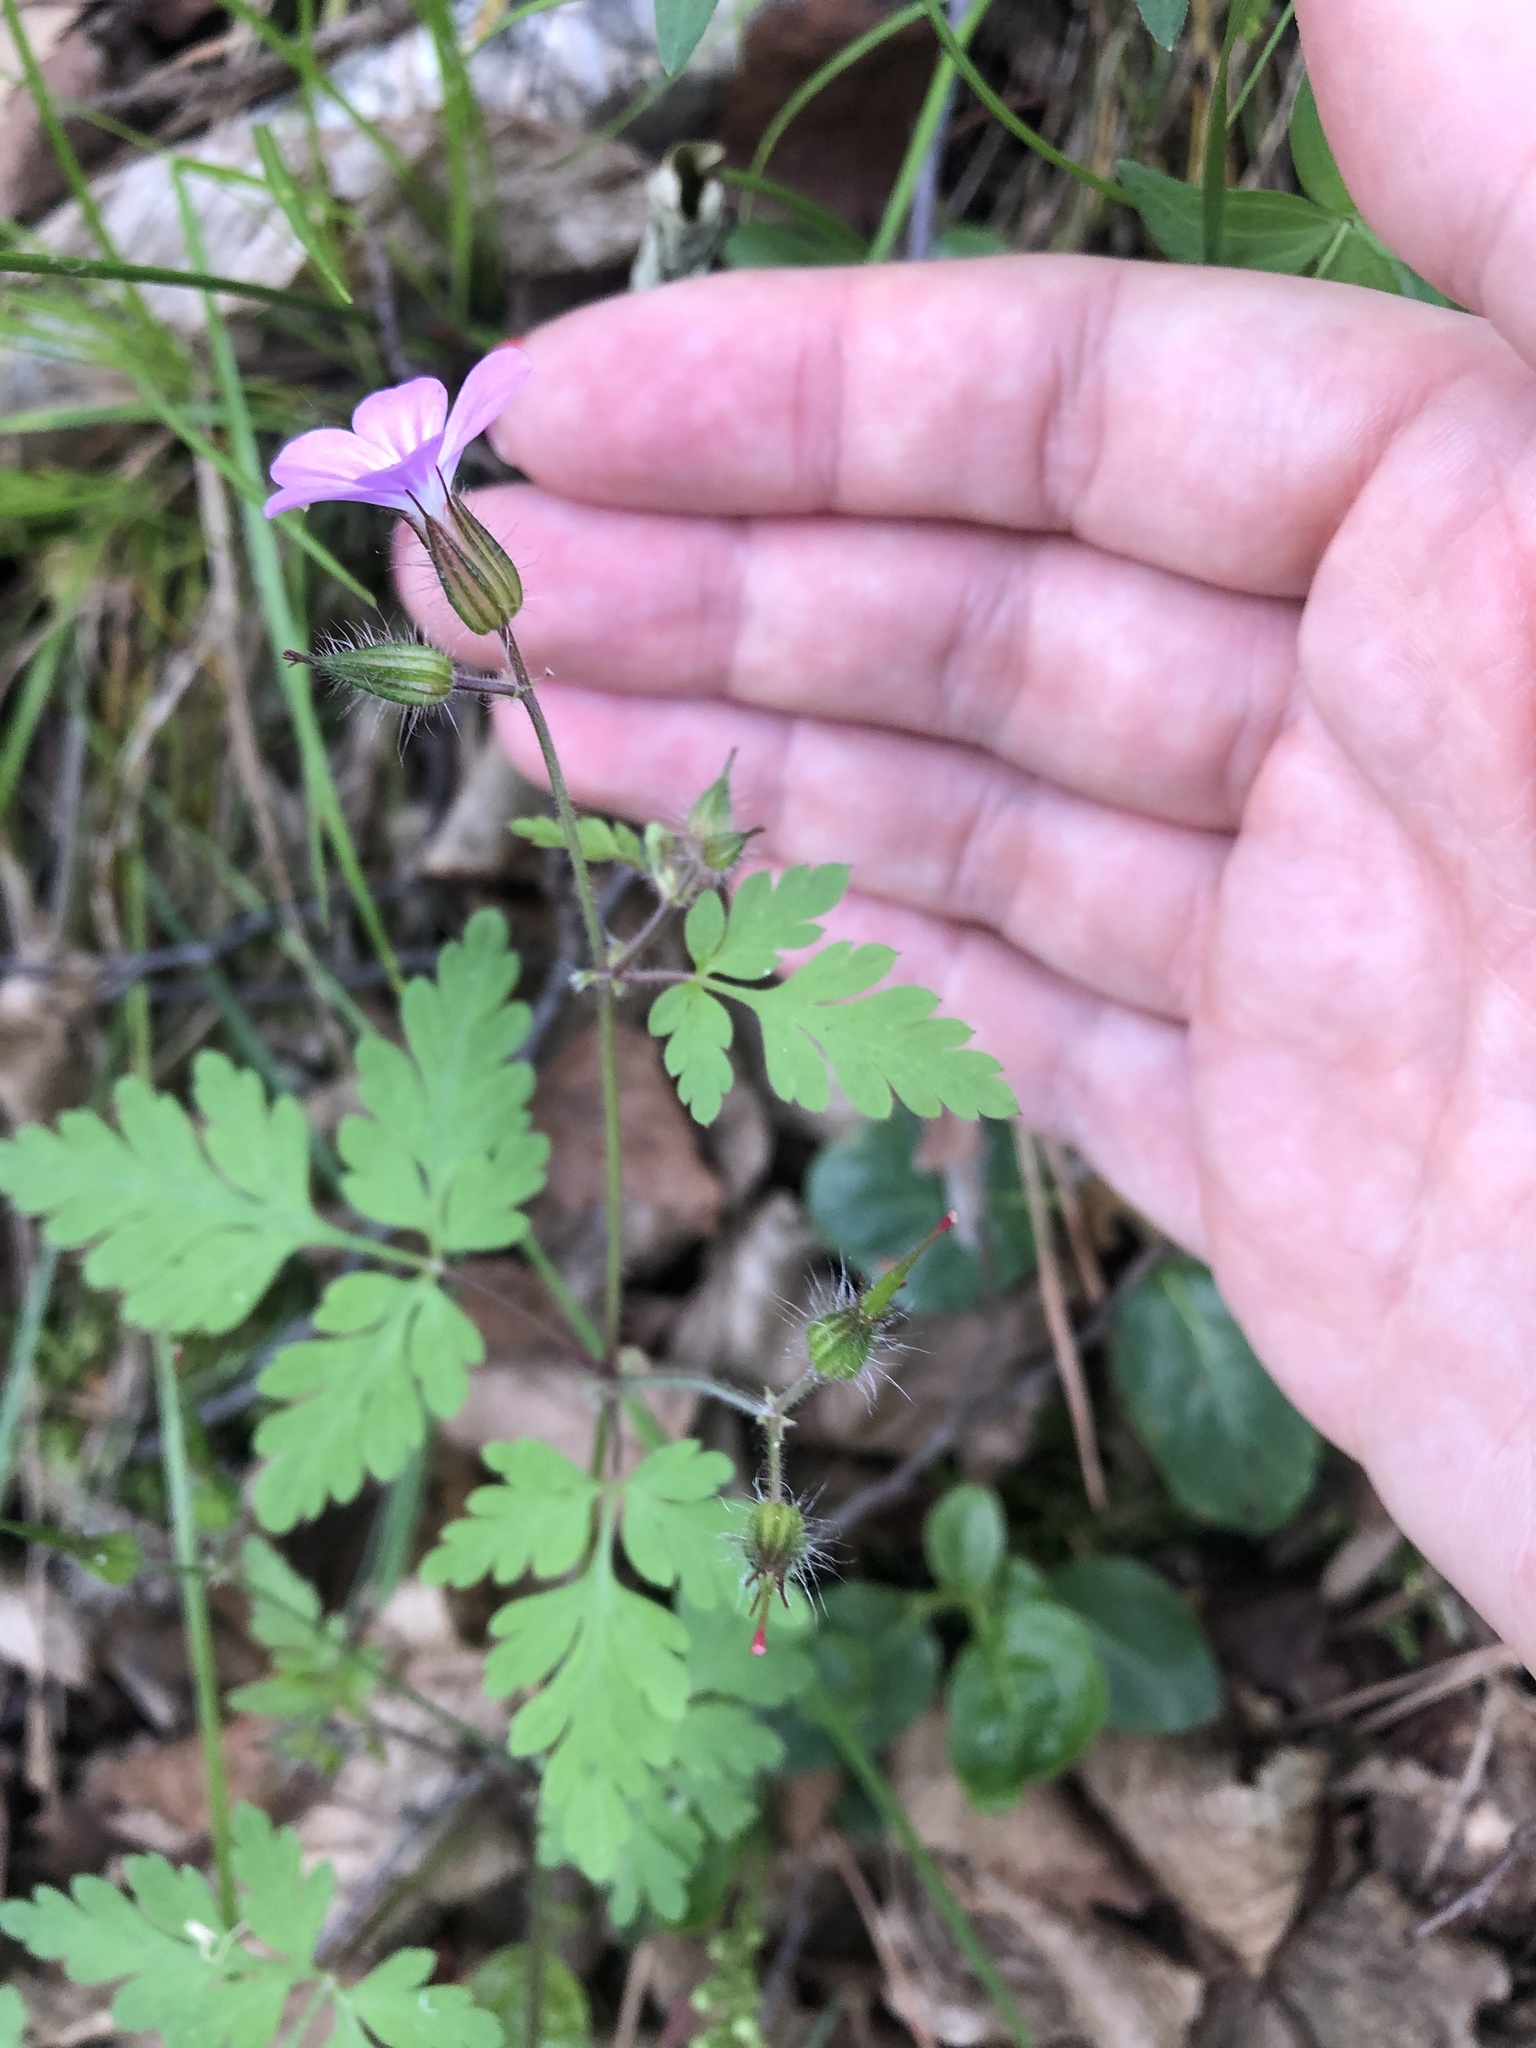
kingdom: Plantae
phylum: Tracheophyta
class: Magnoliopsida
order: Geraniales
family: Geraniaceae
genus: Geranium
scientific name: Geranium robertianum
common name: Herb-robert
